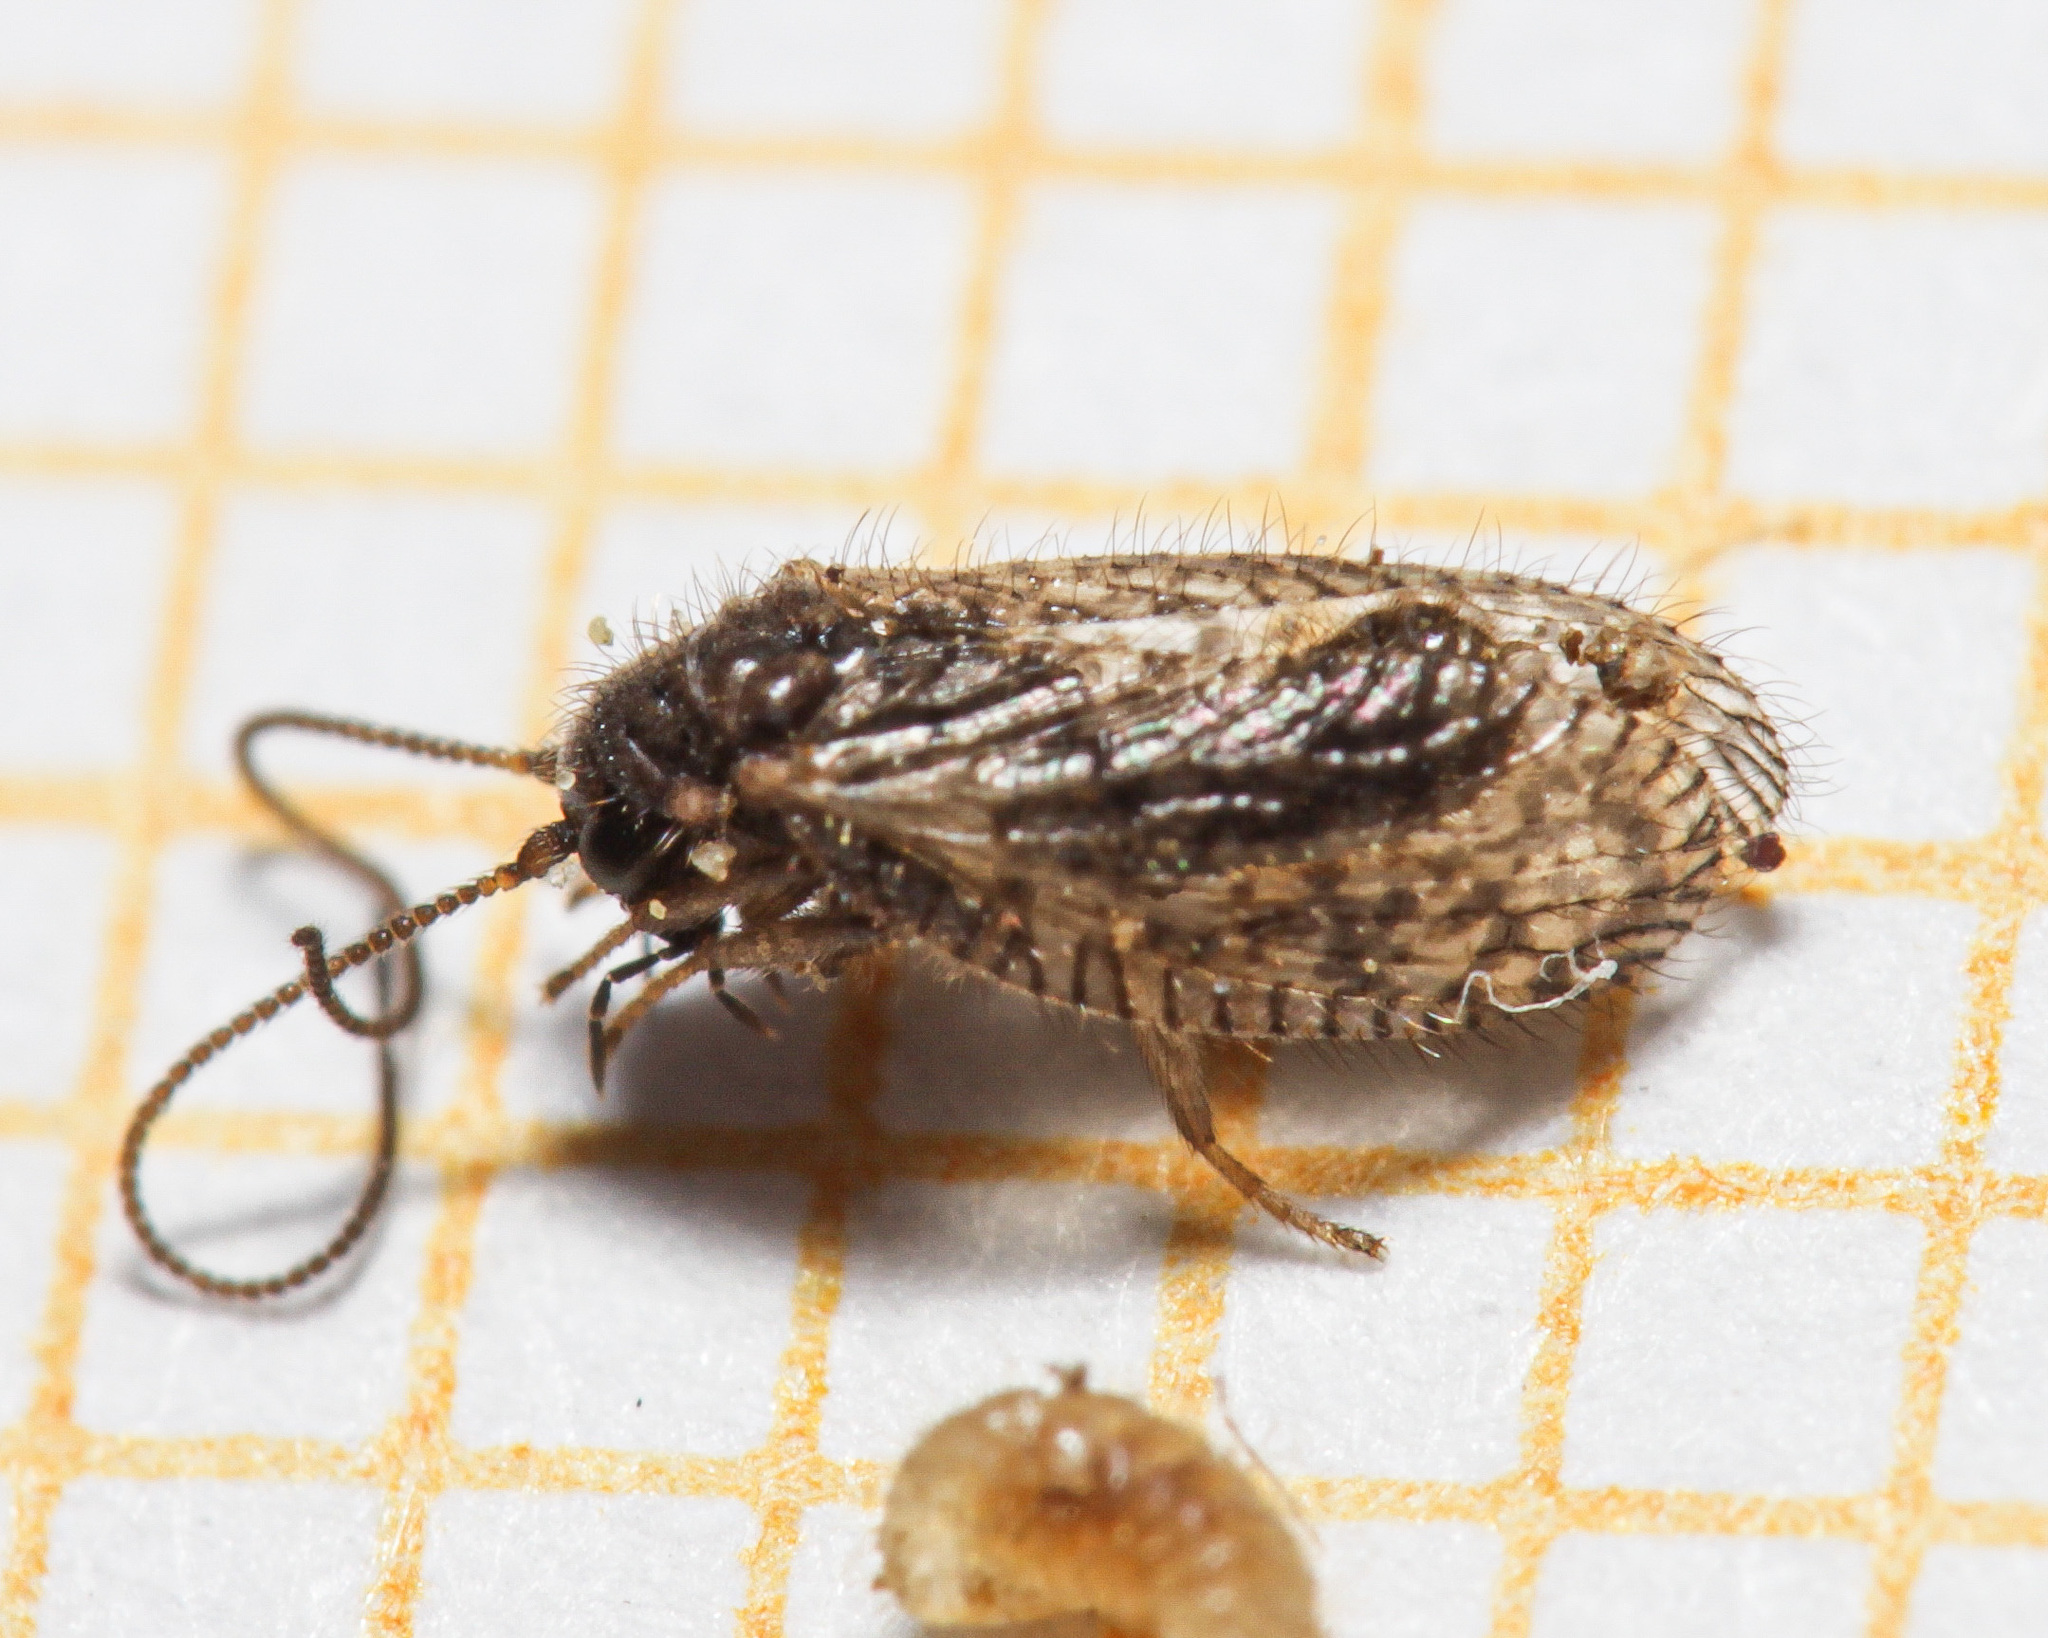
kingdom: Animalia
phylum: Arthropoda
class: Insecta
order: Neuroptera
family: Hemerobiidae
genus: Psectra
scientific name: Psectra diptera
